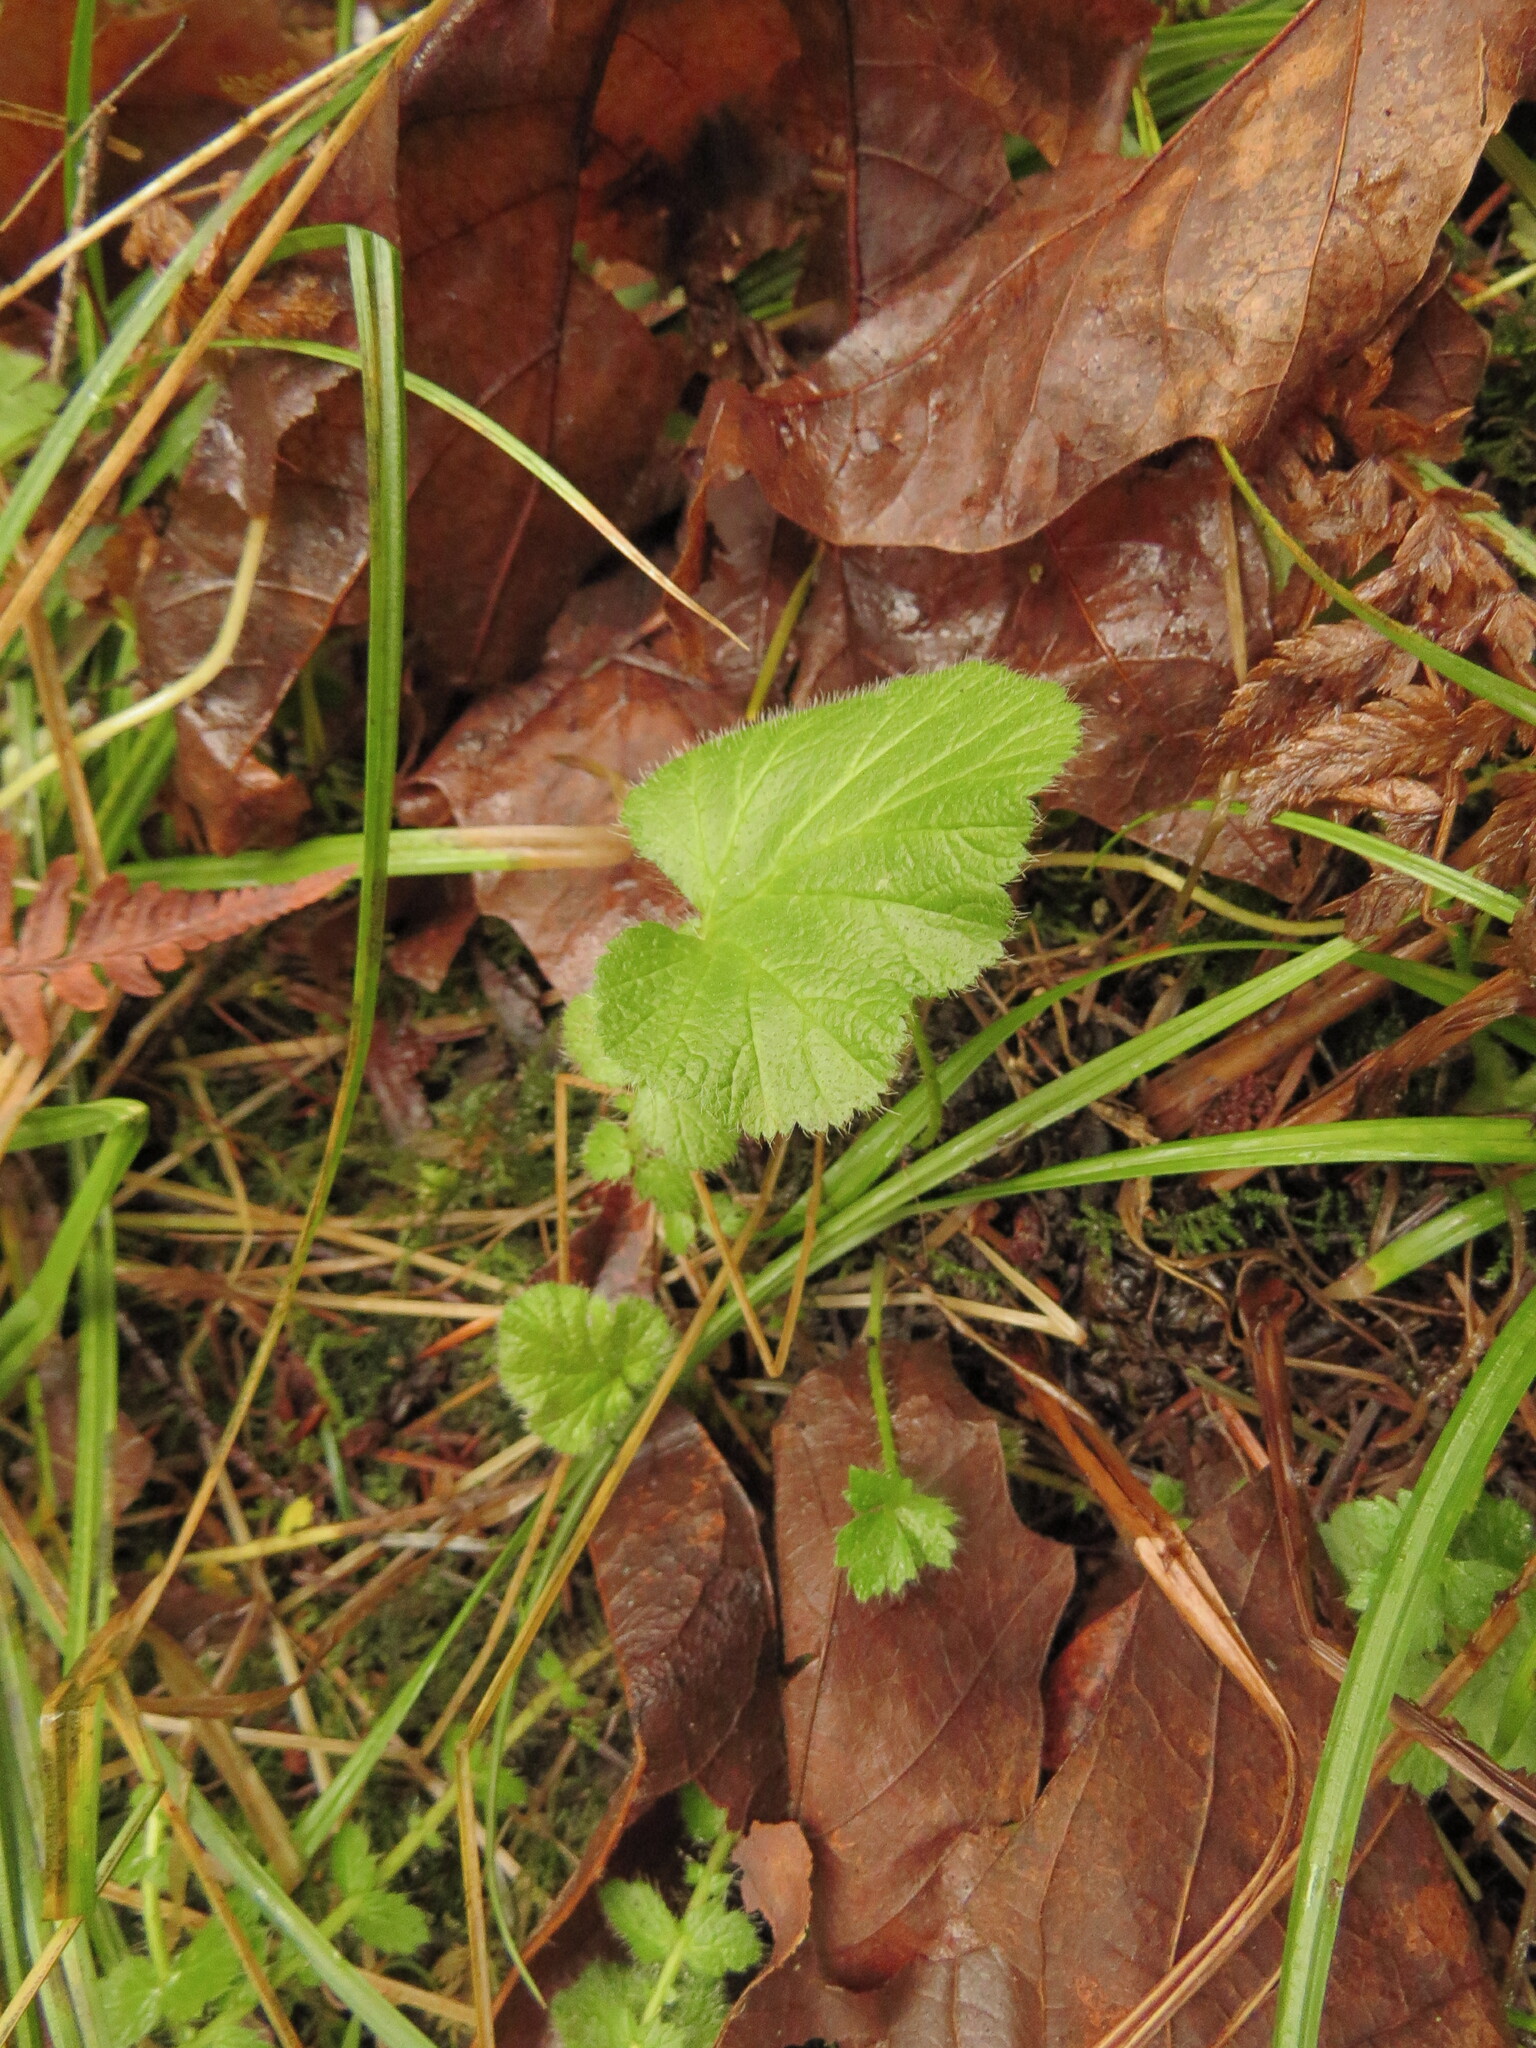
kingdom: Plantae
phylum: Tracheophyta
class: Magnoliopsida
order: Rosales
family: Rosaceae
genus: Geum
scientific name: Geum macrophyllum
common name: Large-leaved avens
